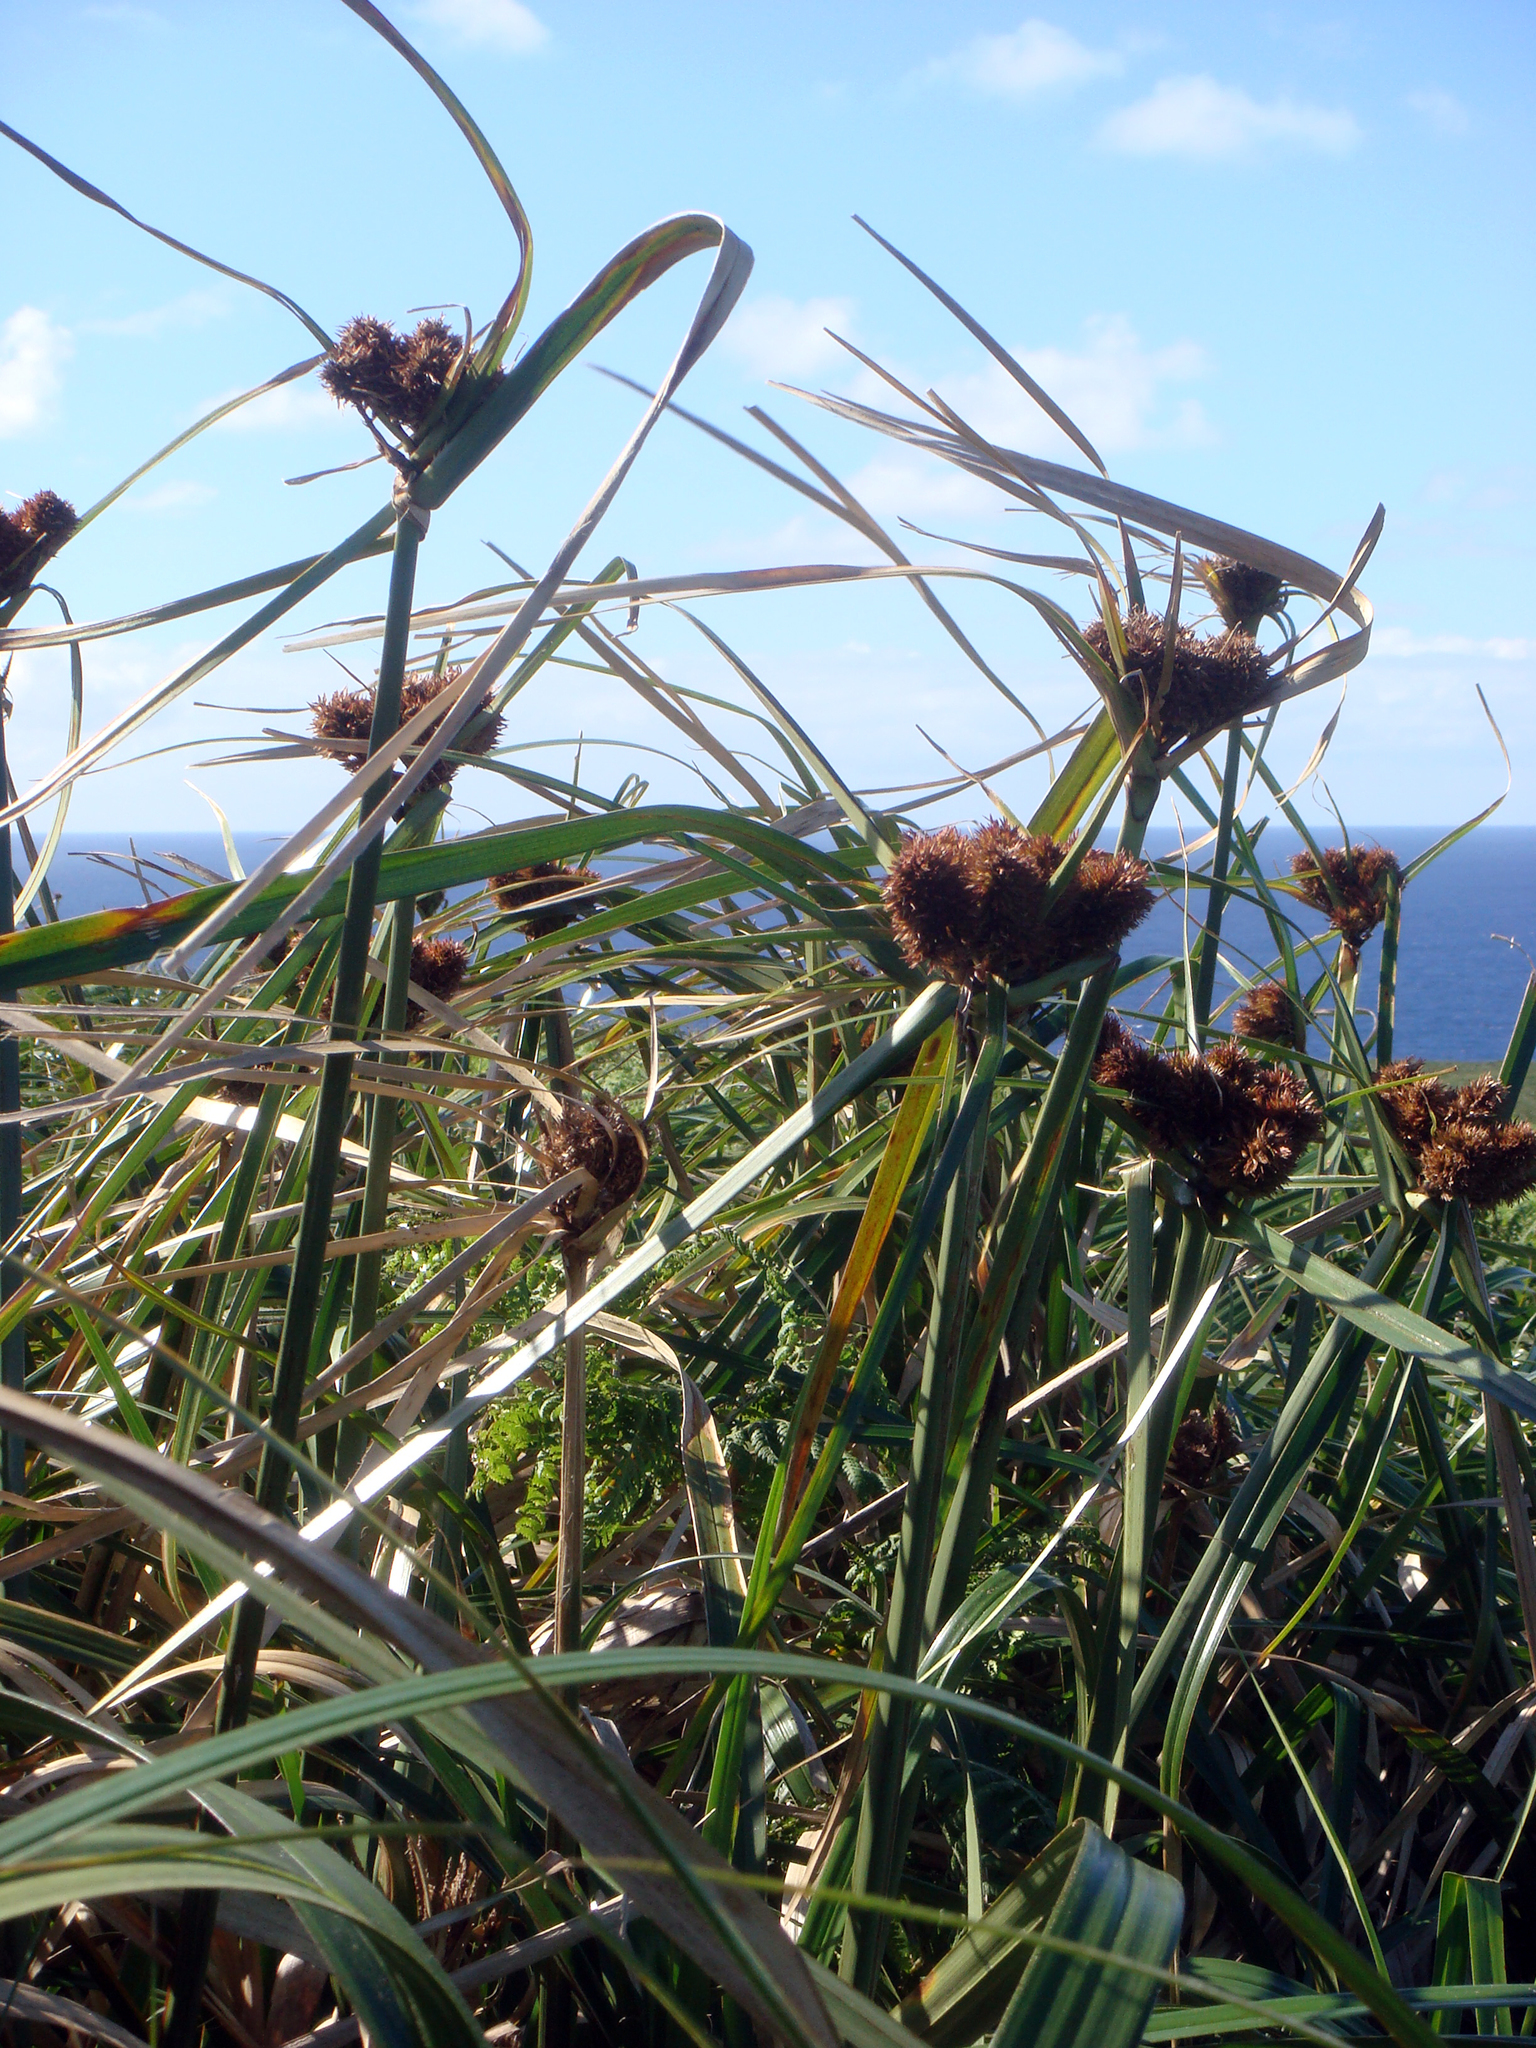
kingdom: Plantae
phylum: Tracheophyta
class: Liliopsida
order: Poales
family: Cyperaceae
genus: Cyperus
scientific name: Cyperus insularis
